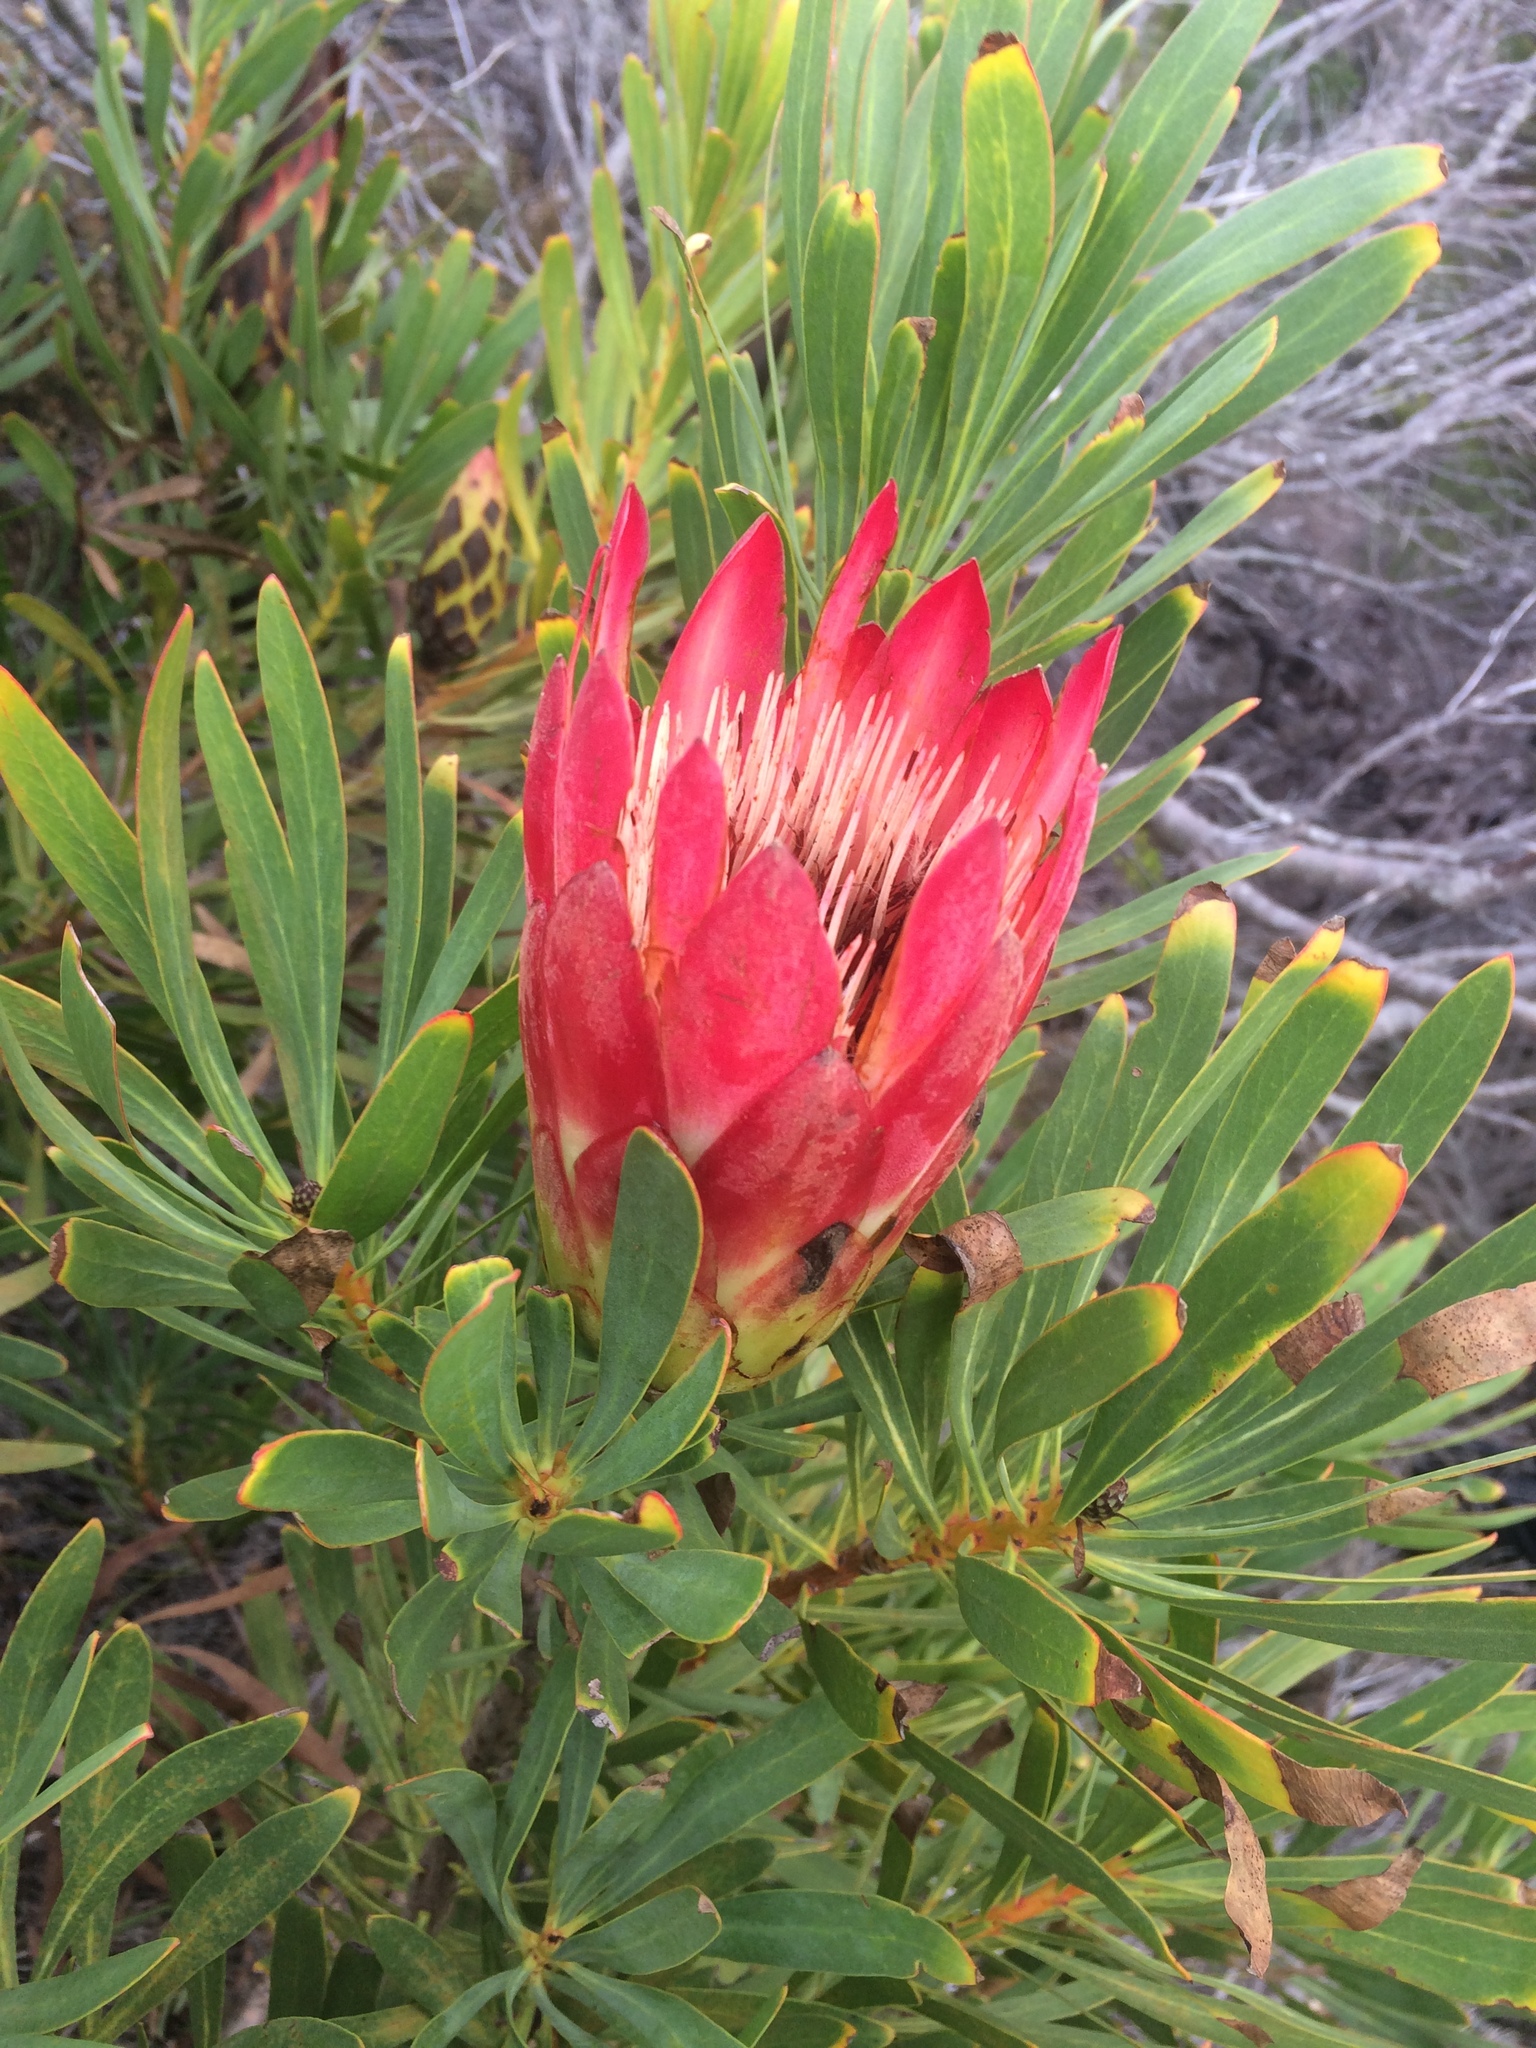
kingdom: Plantae
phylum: Tracheophyta
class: Magnoliopsida
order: Proteales
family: Proteaceae
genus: Protea
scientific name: Protea repens
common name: Sugarbush
